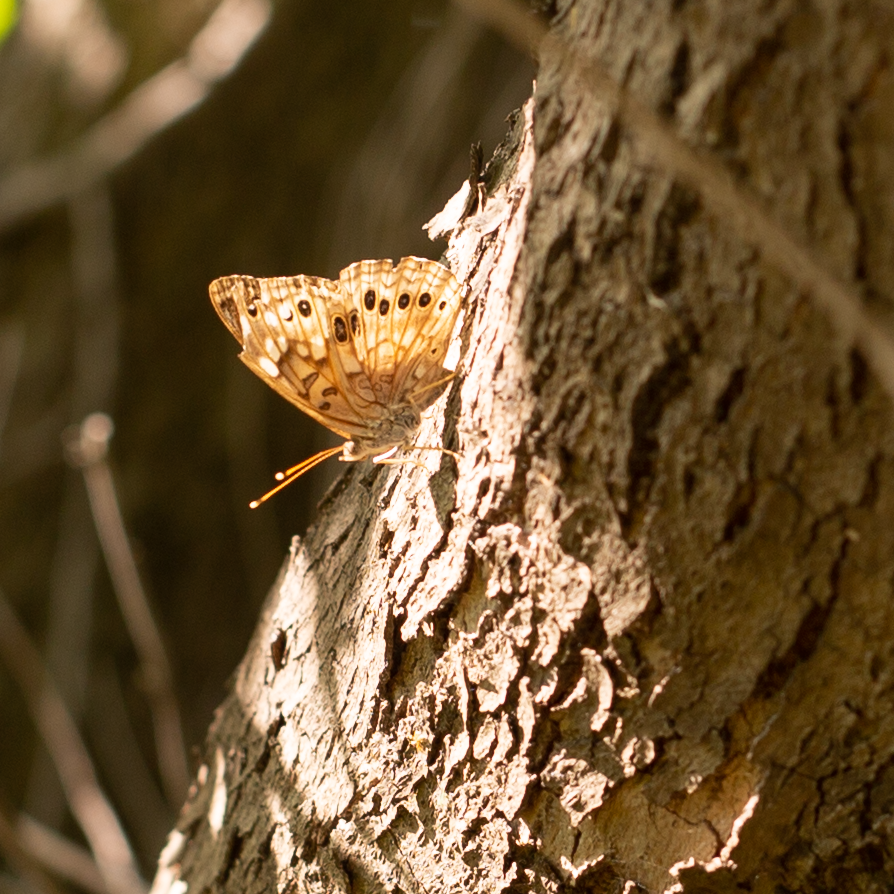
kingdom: Animalia
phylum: Arthropoda
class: Insecta
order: Lepidoptera
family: Nymphalidae
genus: Asterocampa
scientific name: Asterocampa celtis
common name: Hackberry emperor
